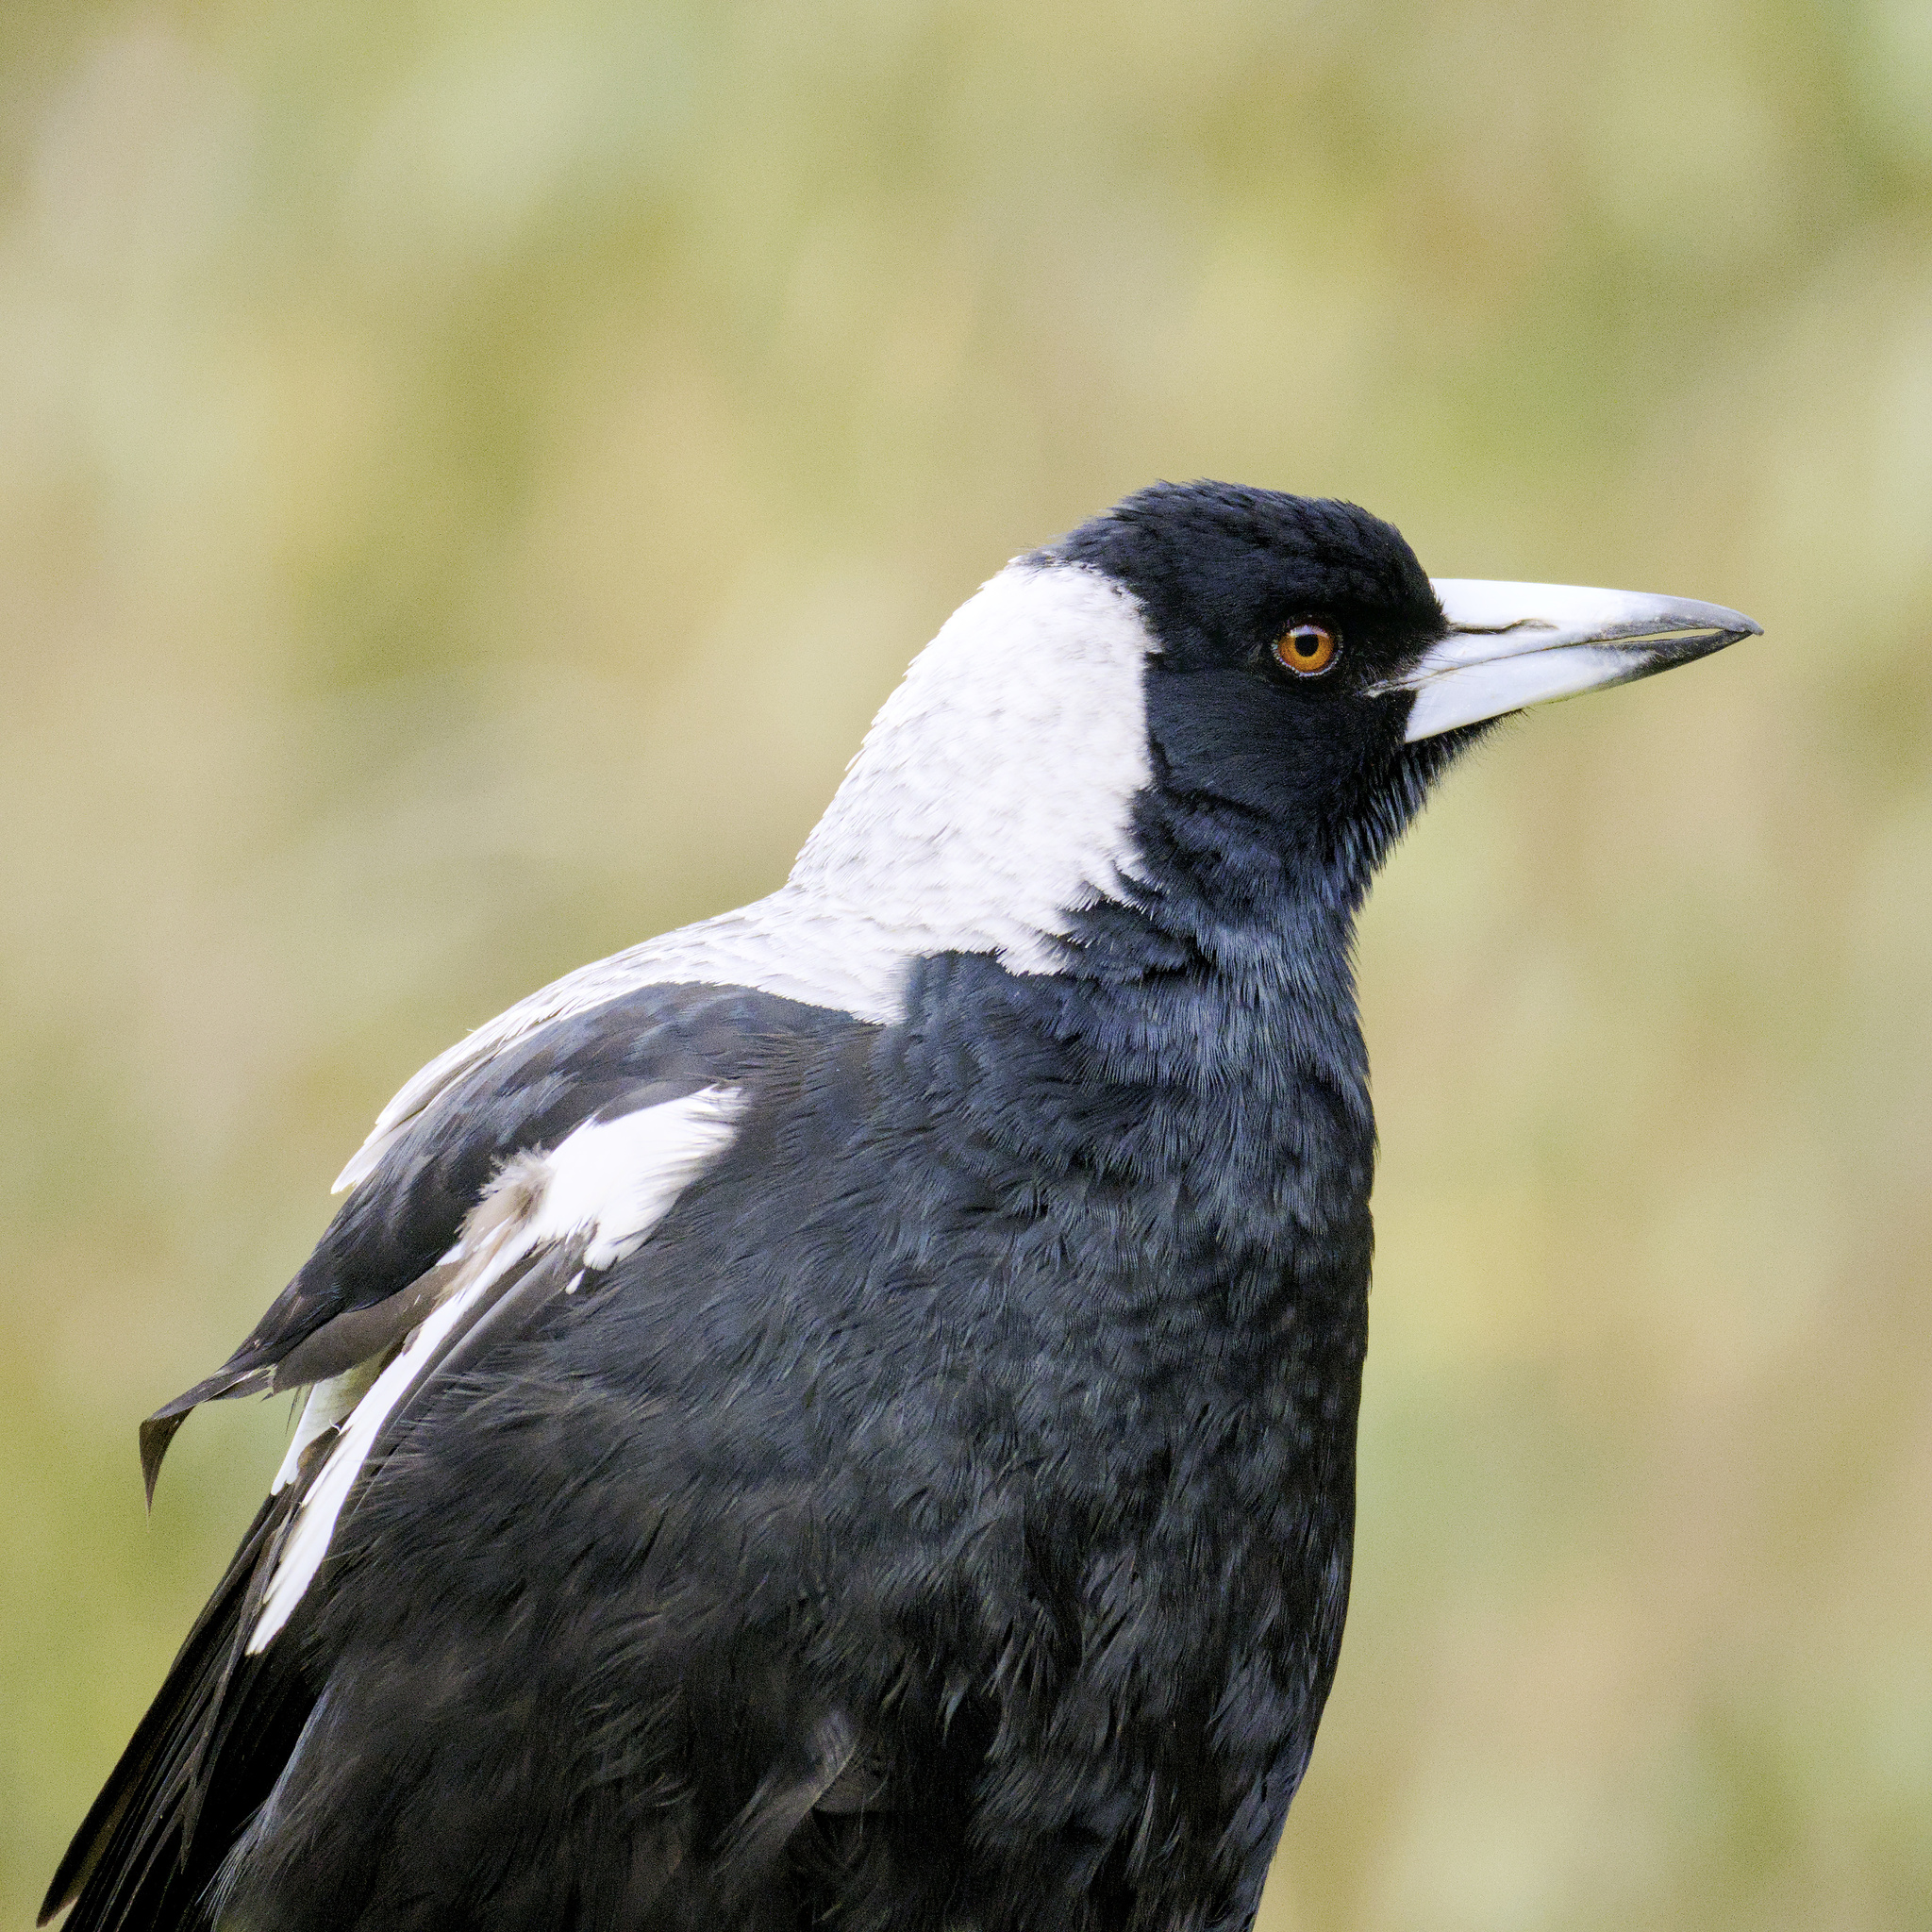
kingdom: Animalia
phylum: Chordata
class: Aves
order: Passeriformes
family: Cracticidae
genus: Gymnorhina
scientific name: Gymnorhina tibicen
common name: Australian magpie
